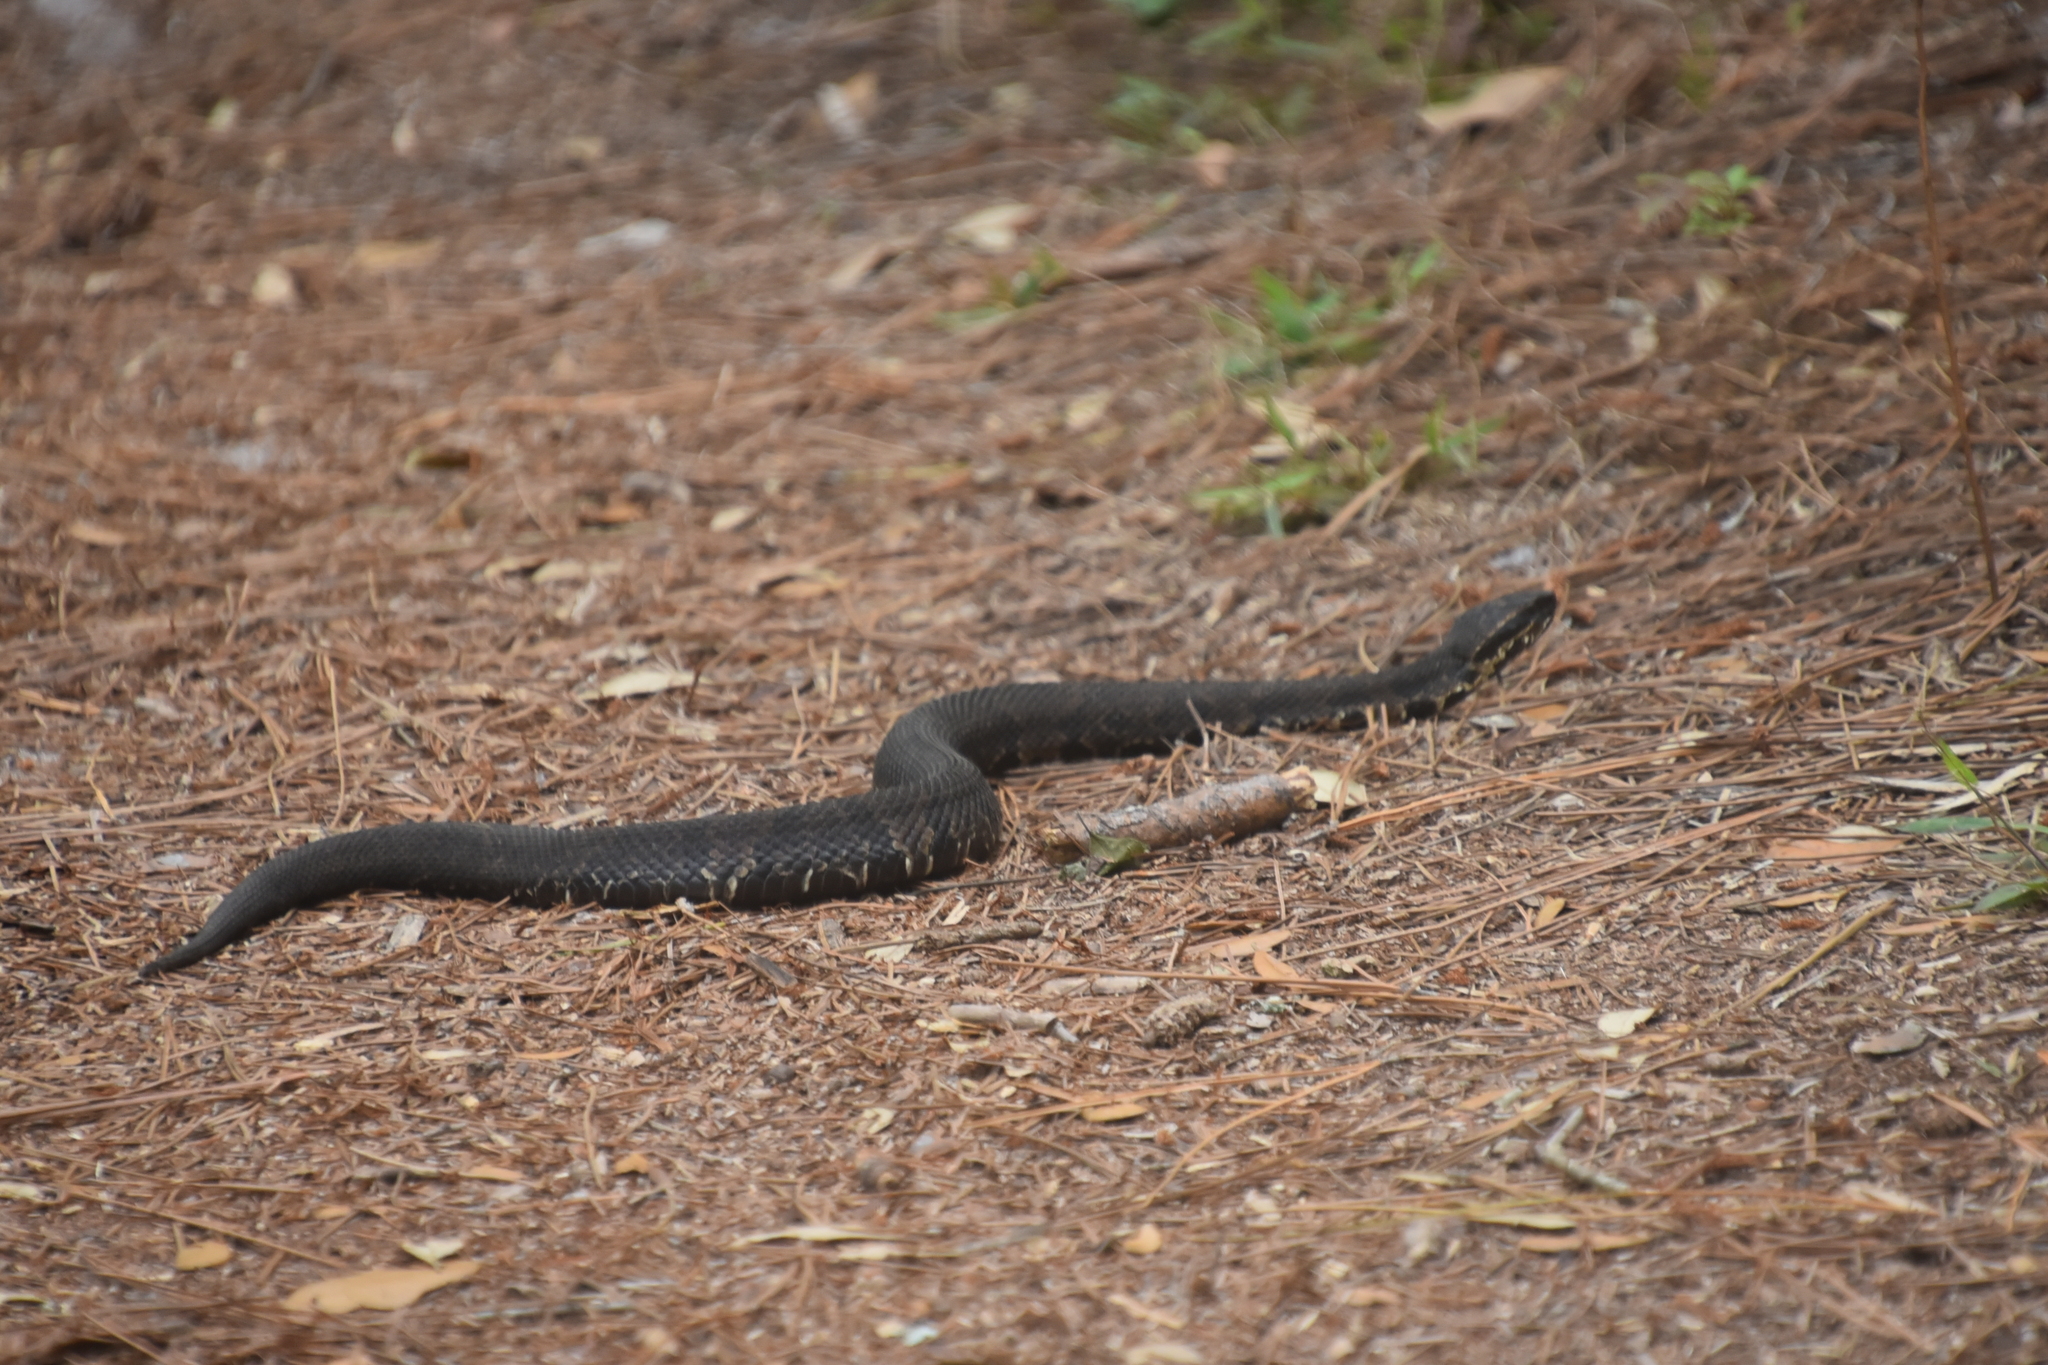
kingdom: Animalia
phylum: Chordata
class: Squamata
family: Viperidae
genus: Agkistrodon
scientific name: Agkistrodon piscivorus
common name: Cottonmouth
